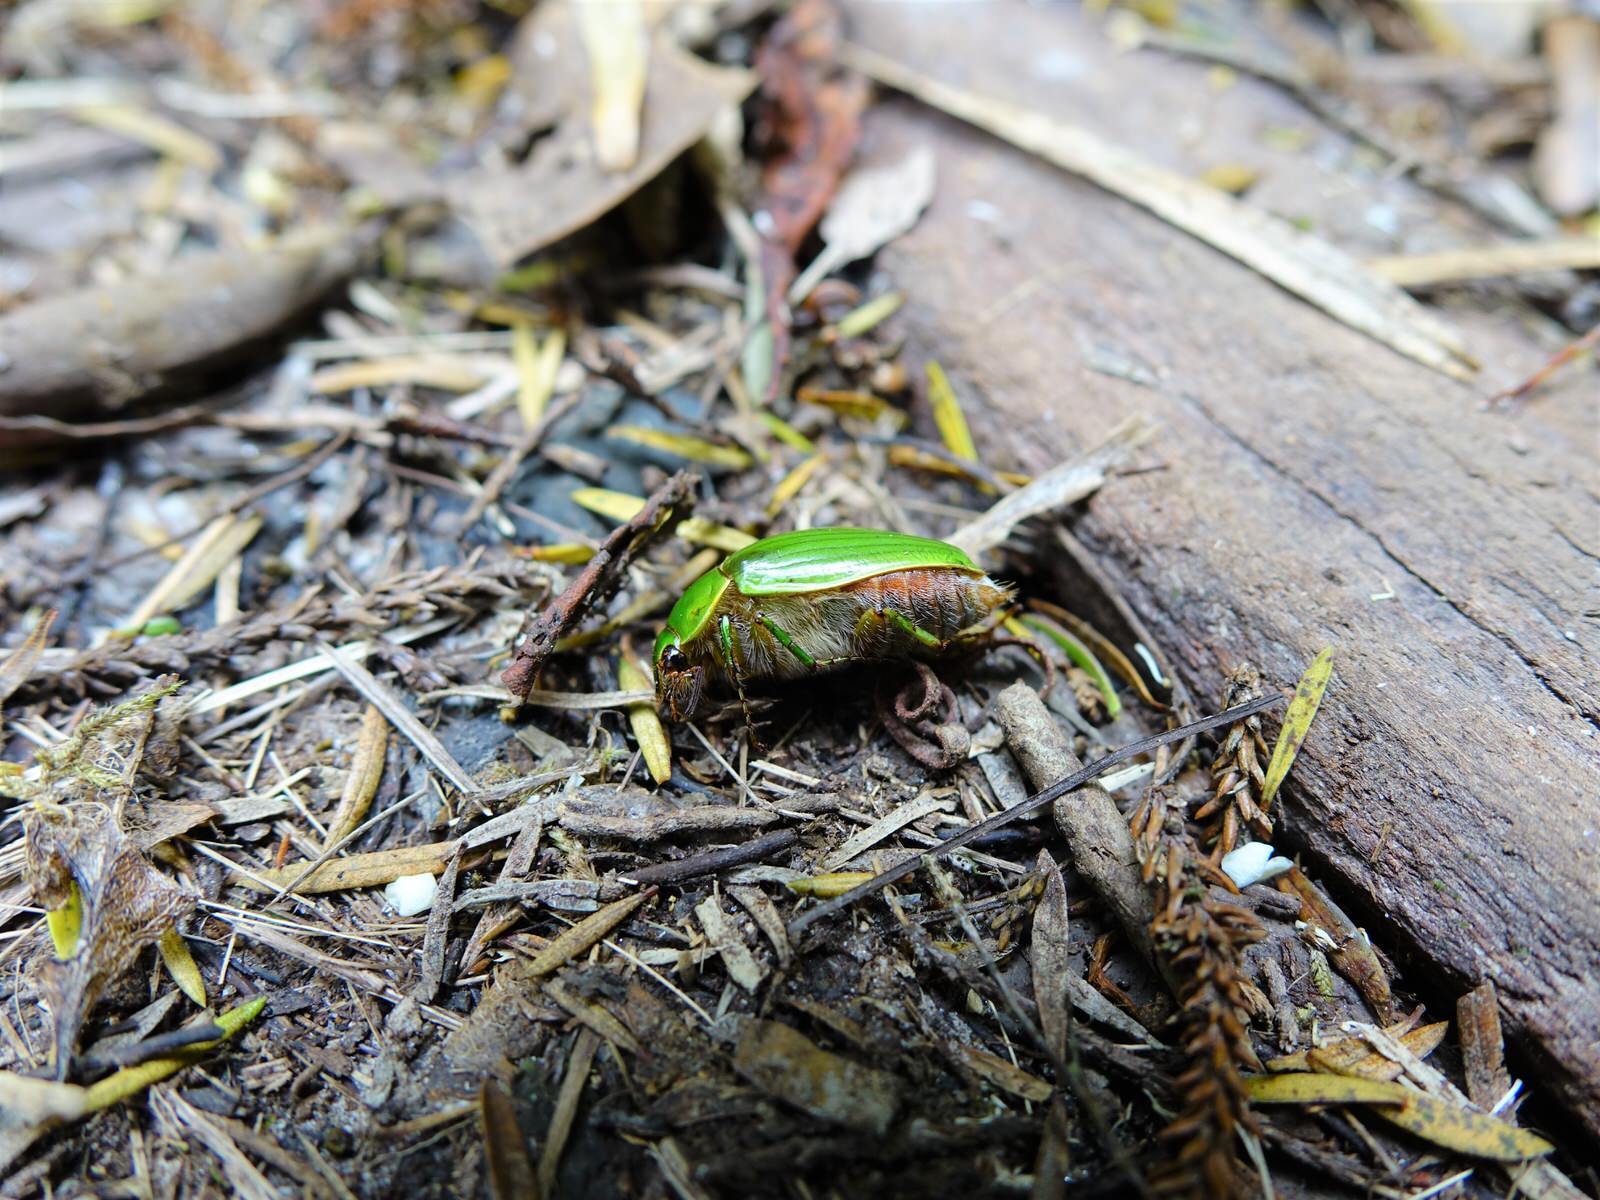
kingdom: Animalia
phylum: Arthropoda
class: Insecta
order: Coleoptera
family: Scarabaeidae
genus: Stethaspis
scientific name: Stethaspis longicornis
